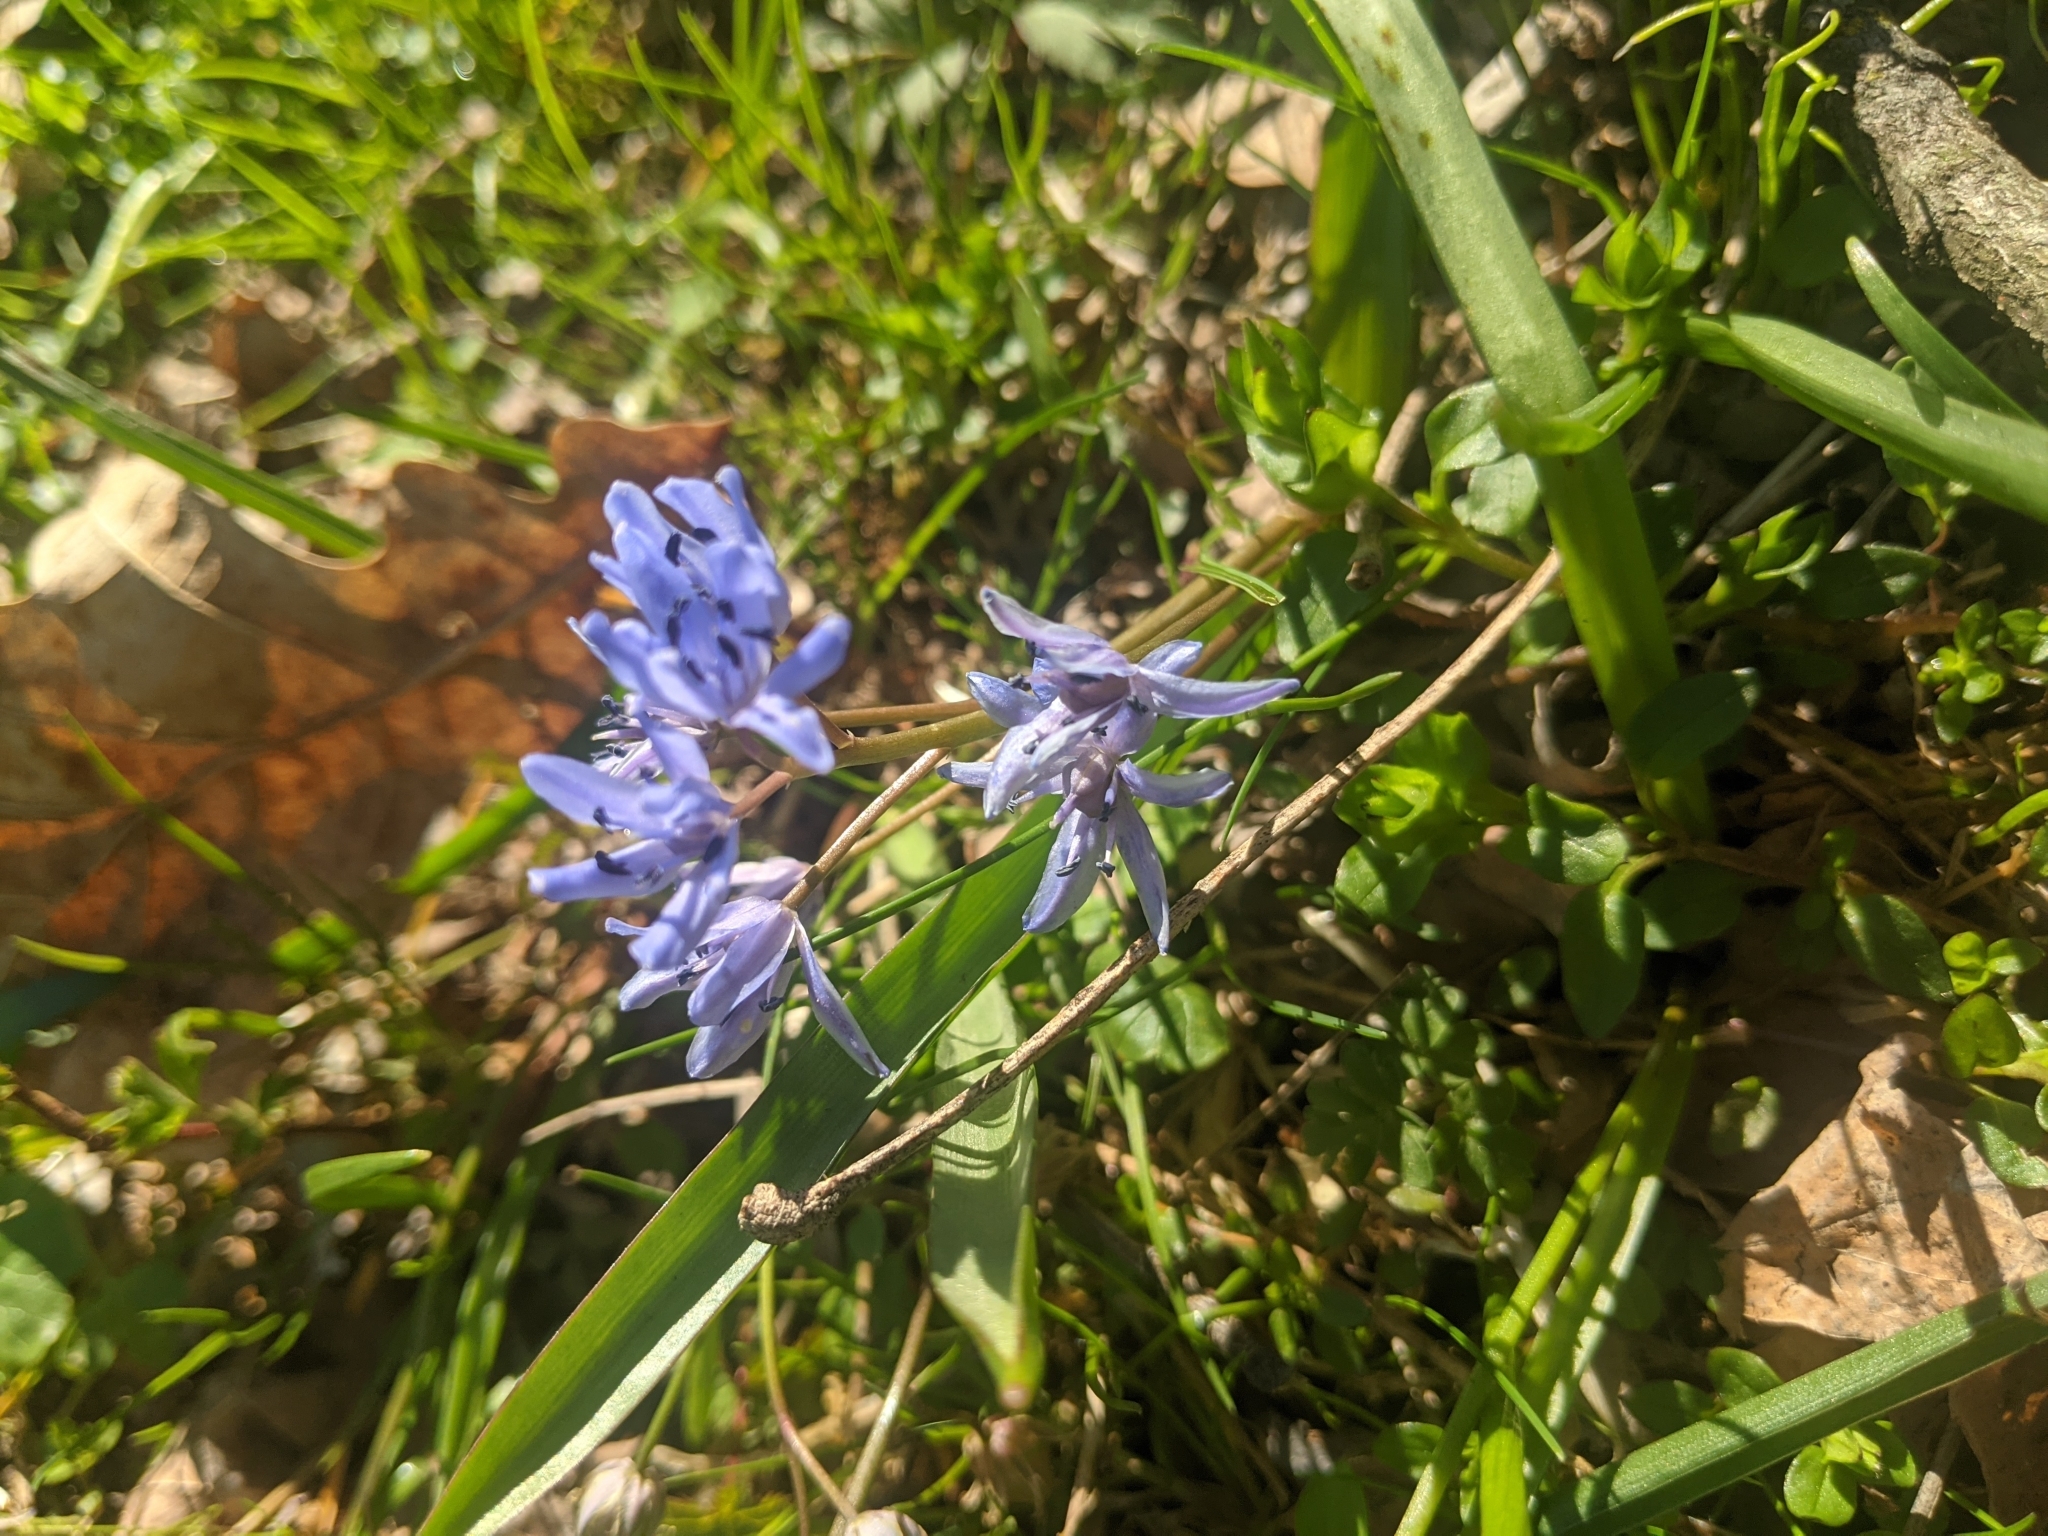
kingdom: Plantae
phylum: Tracheophyta
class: Liliopsida
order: Asparagales
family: Asparagaceae
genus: Scilla
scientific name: Scilla bifolia
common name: Alpine squill
